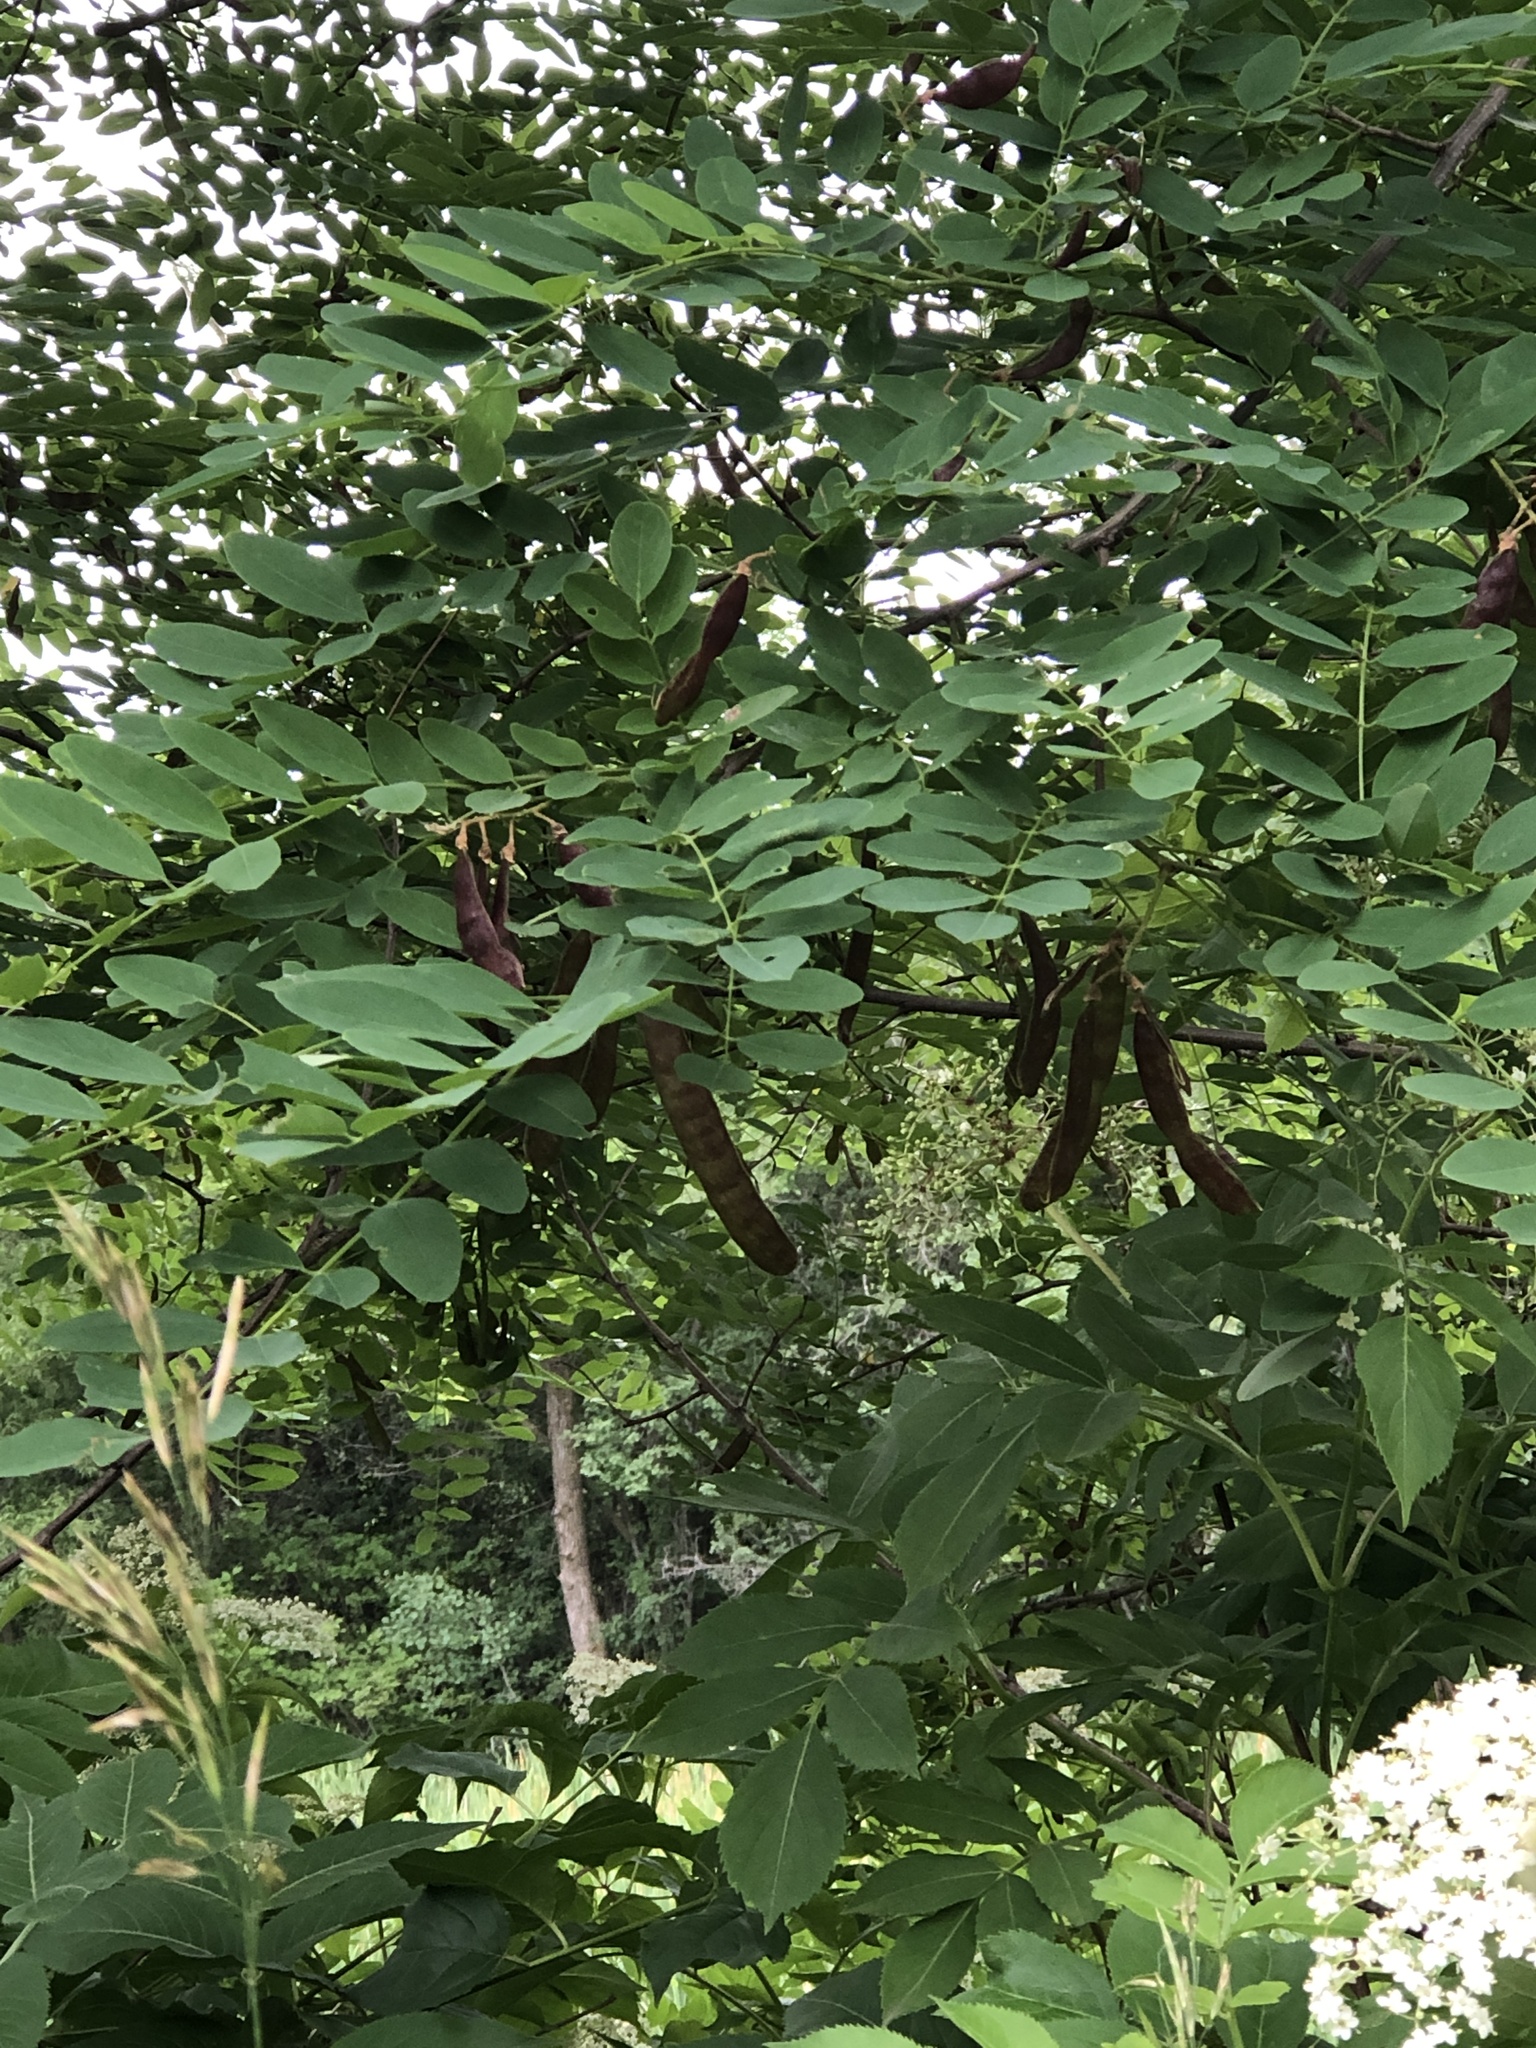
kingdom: Plantae
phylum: Tracheophyta
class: Magnoliopsida
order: Fabales
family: Fabaceae
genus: Robinia
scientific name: Robinia pseudoacacia
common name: Black locust
